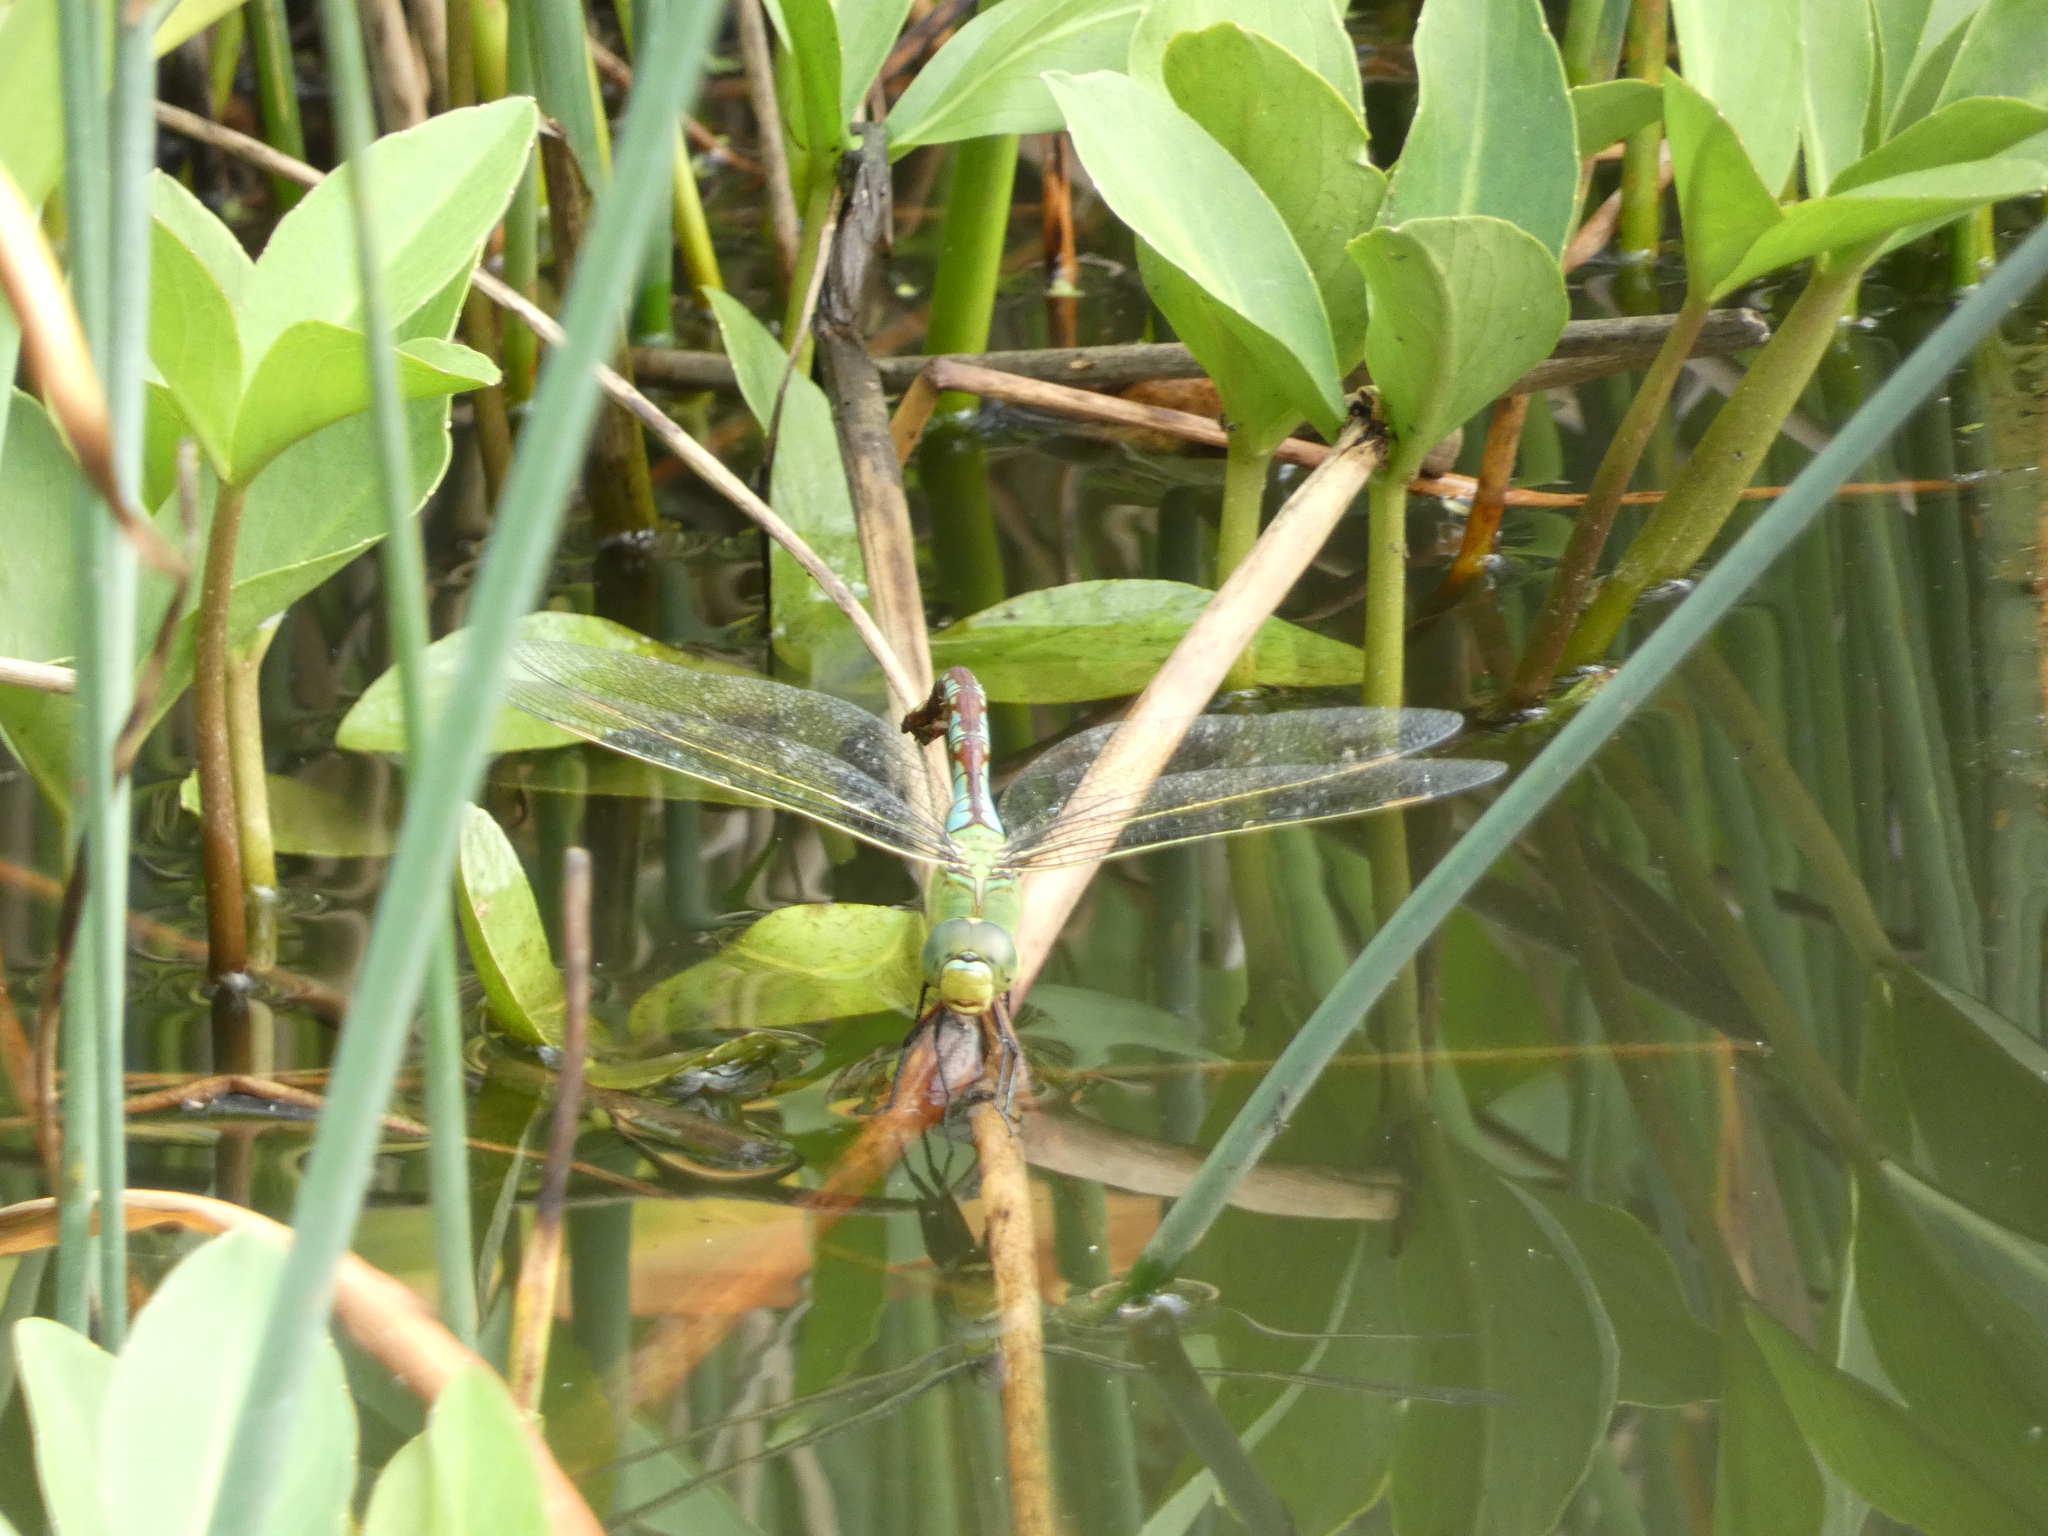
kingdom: Animalia
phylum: Arthropoda
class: Insecta
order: Odonata
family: Aeshnidae
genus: Anax
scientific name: Anax imperator
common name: Emperor dragonfly
